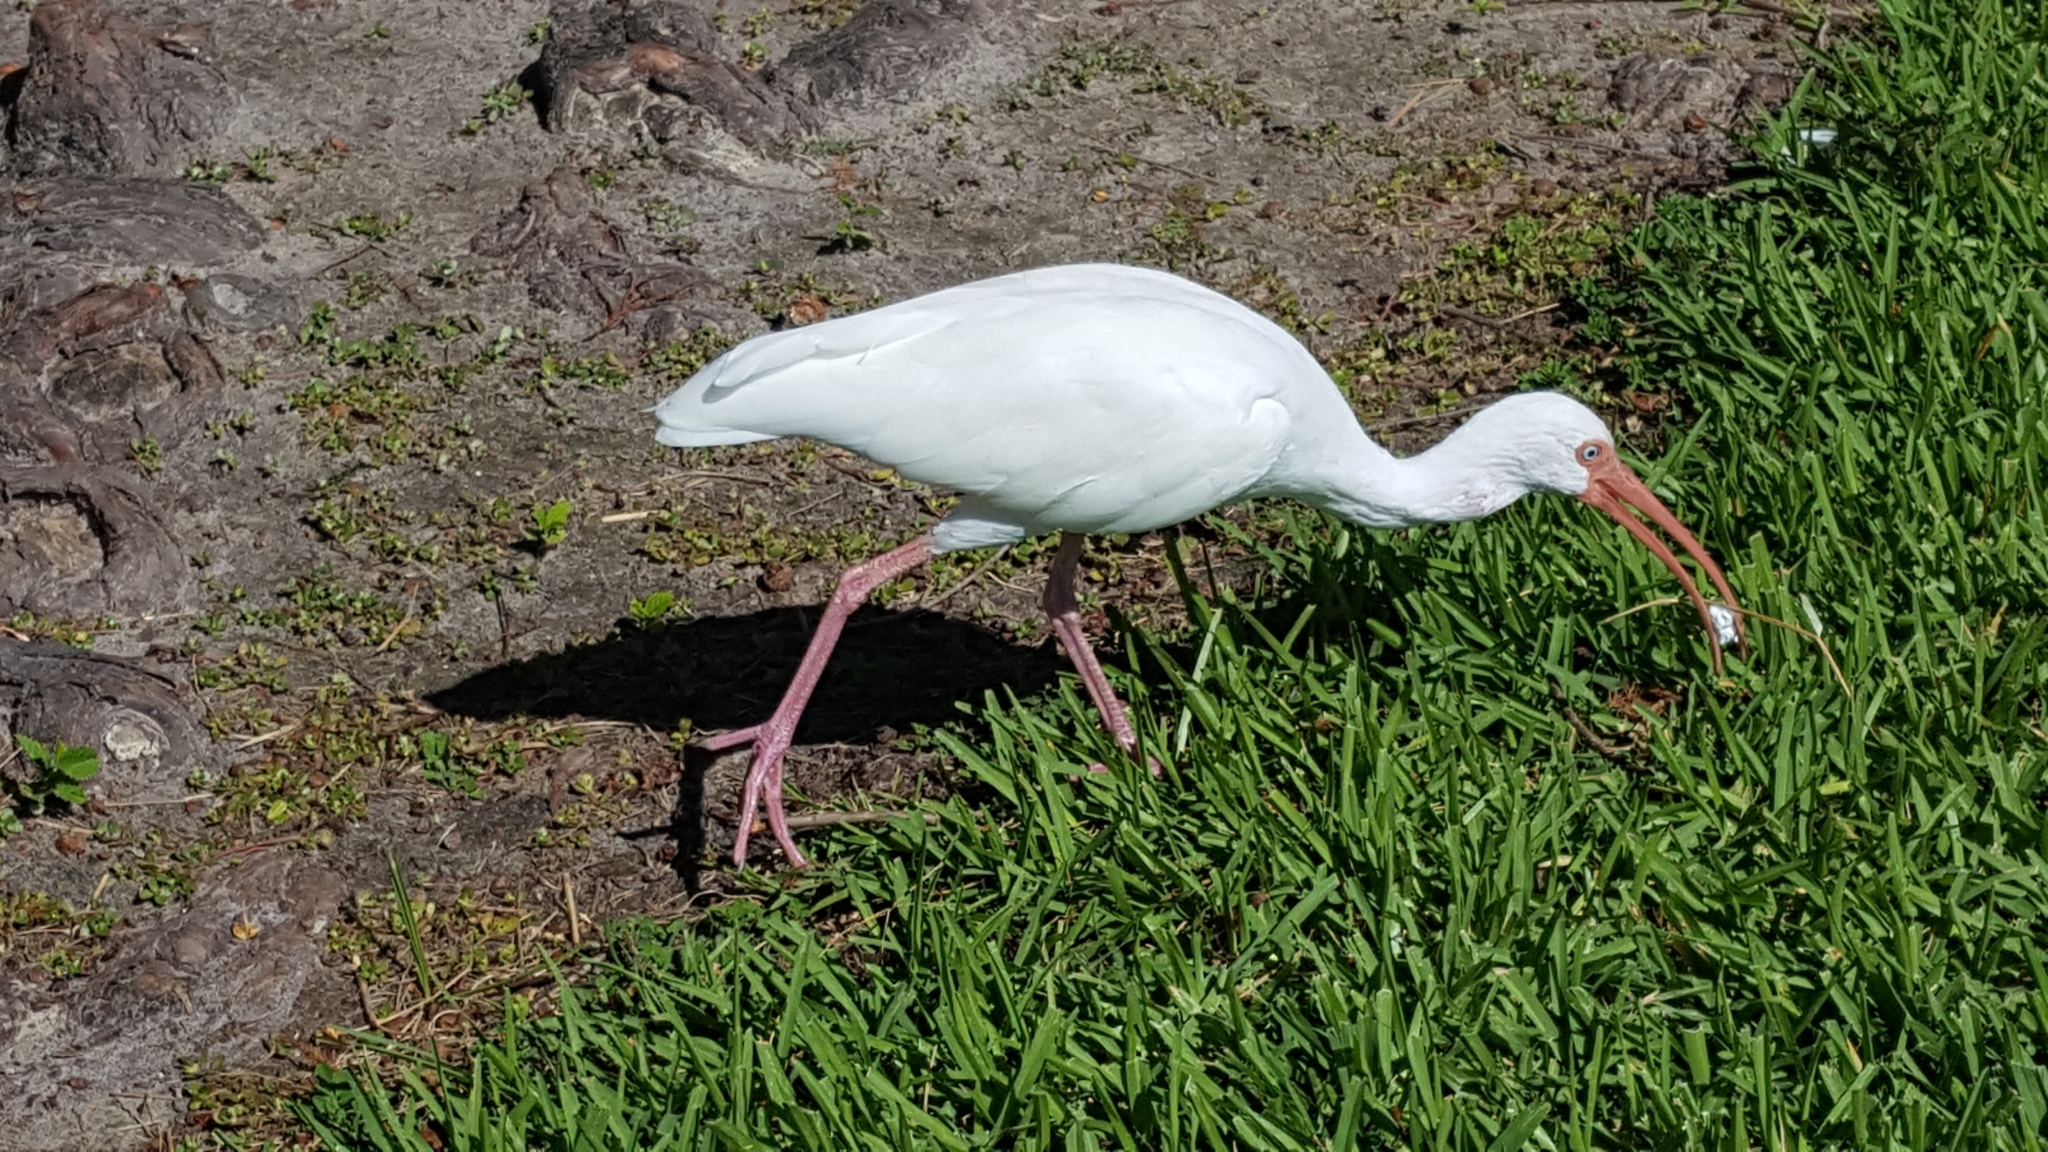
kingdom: Animalia
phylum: Chordata
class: Aves
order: Pelecaniformes
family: Threskiornithidae
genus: Eudocimus
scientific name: Eudocimus albus
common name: White ibis
